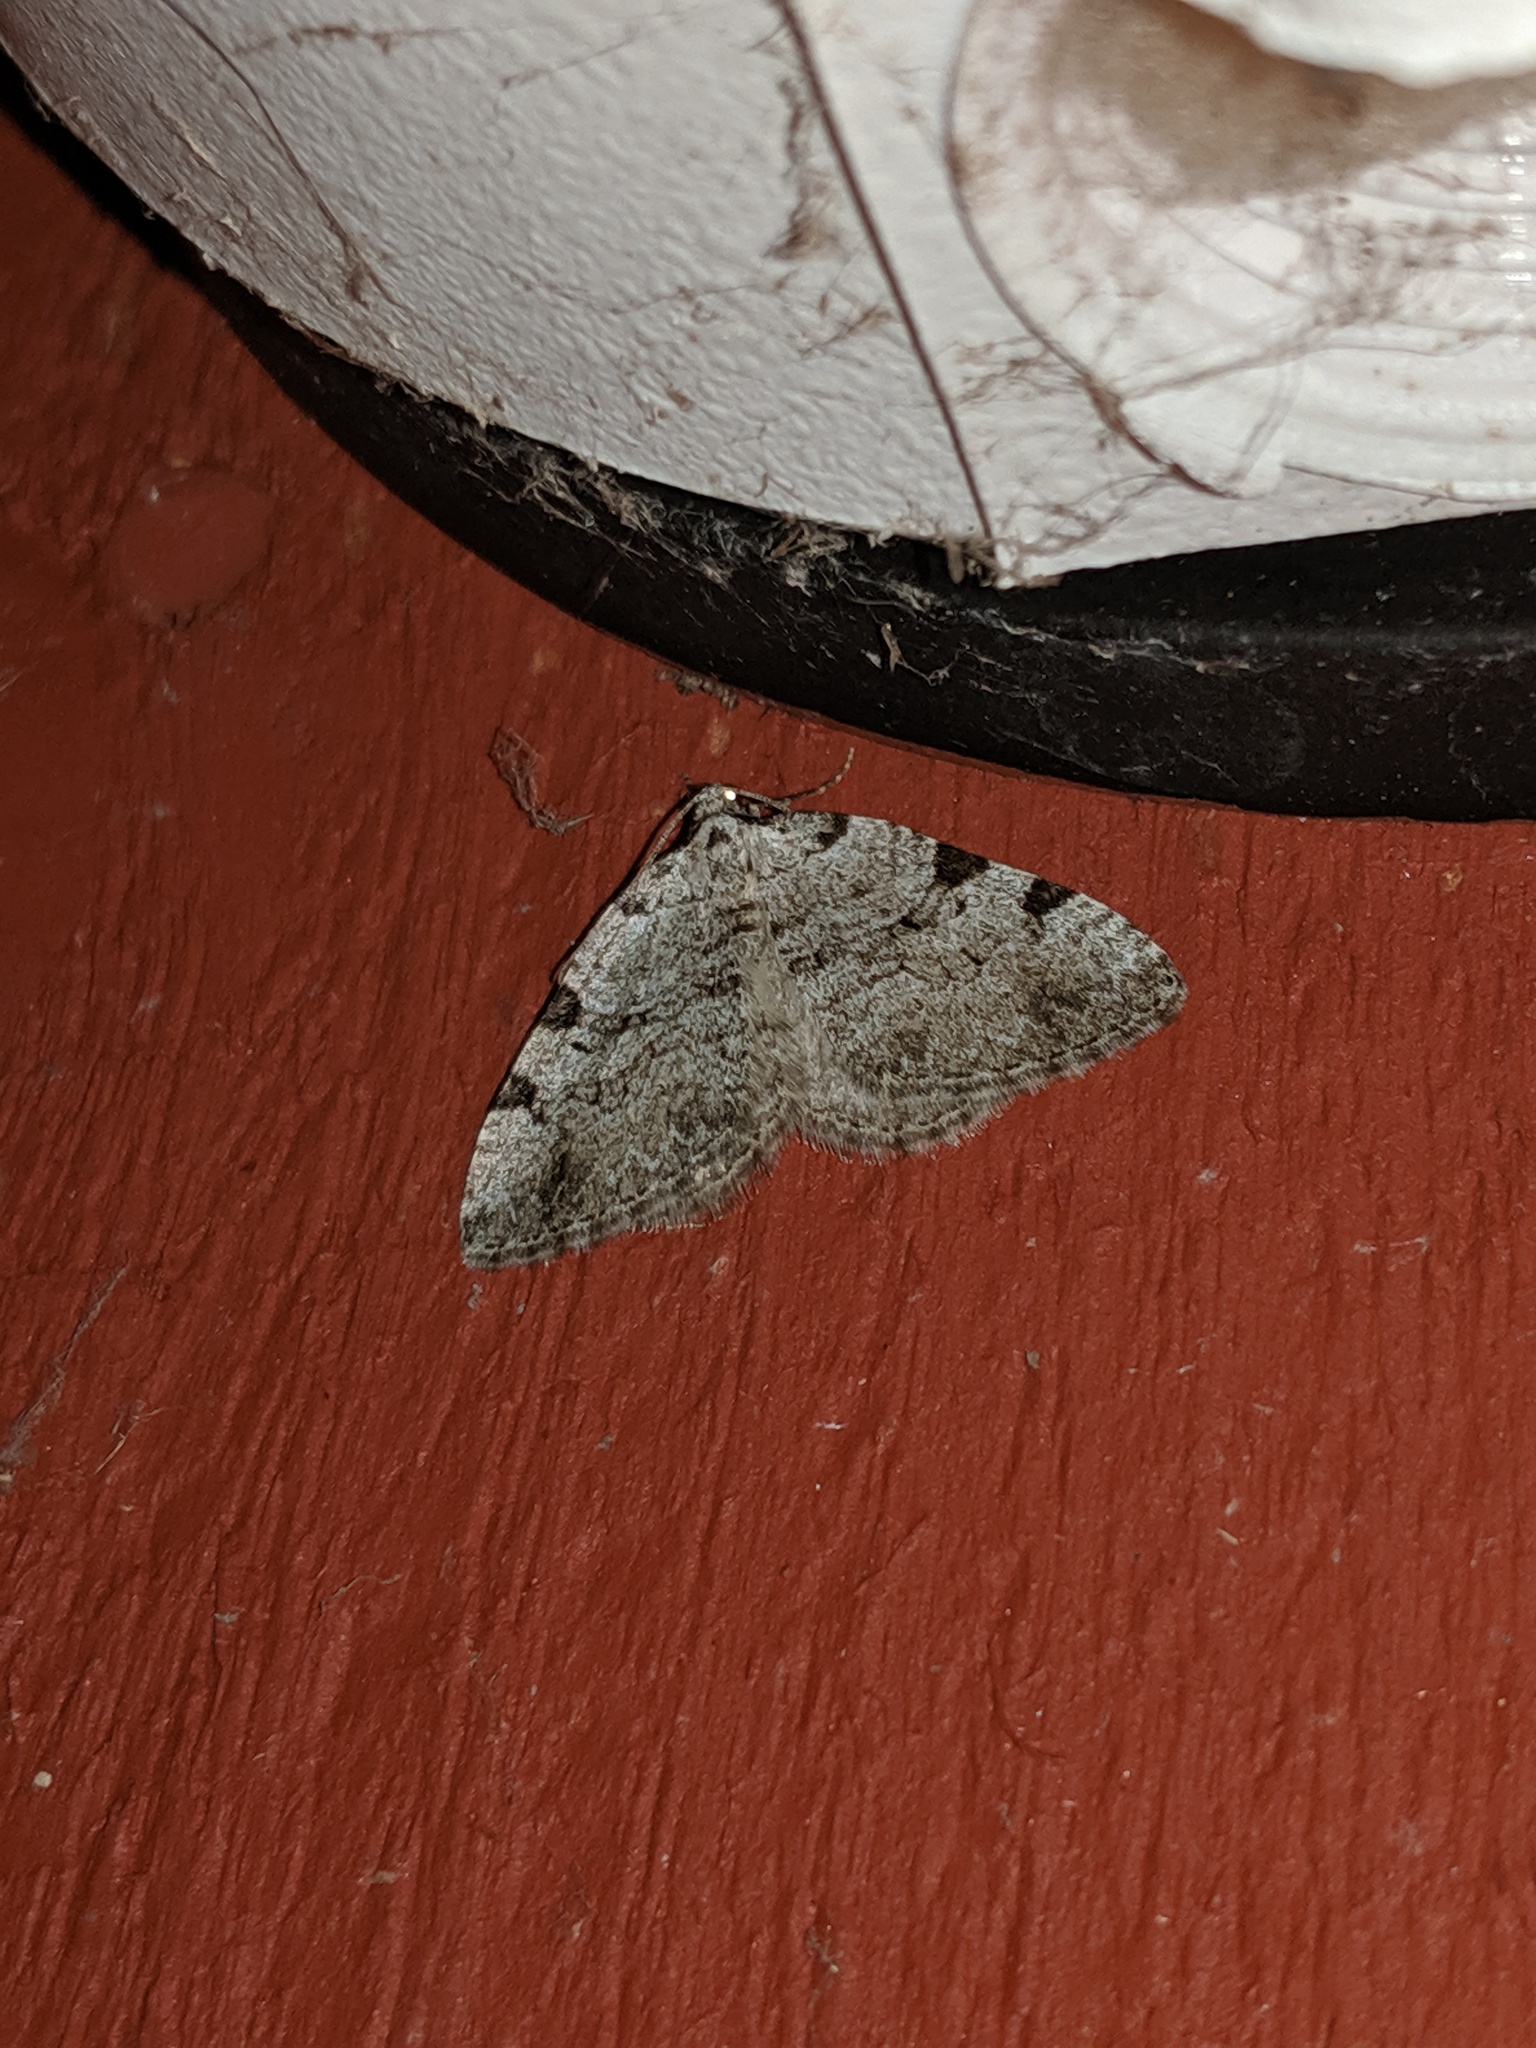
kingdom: Animalia
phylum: Arthropoda
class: Insecta
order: Lepidoptera
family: Geometridae
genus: Perizoma
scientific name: Perizoma costiguttata
